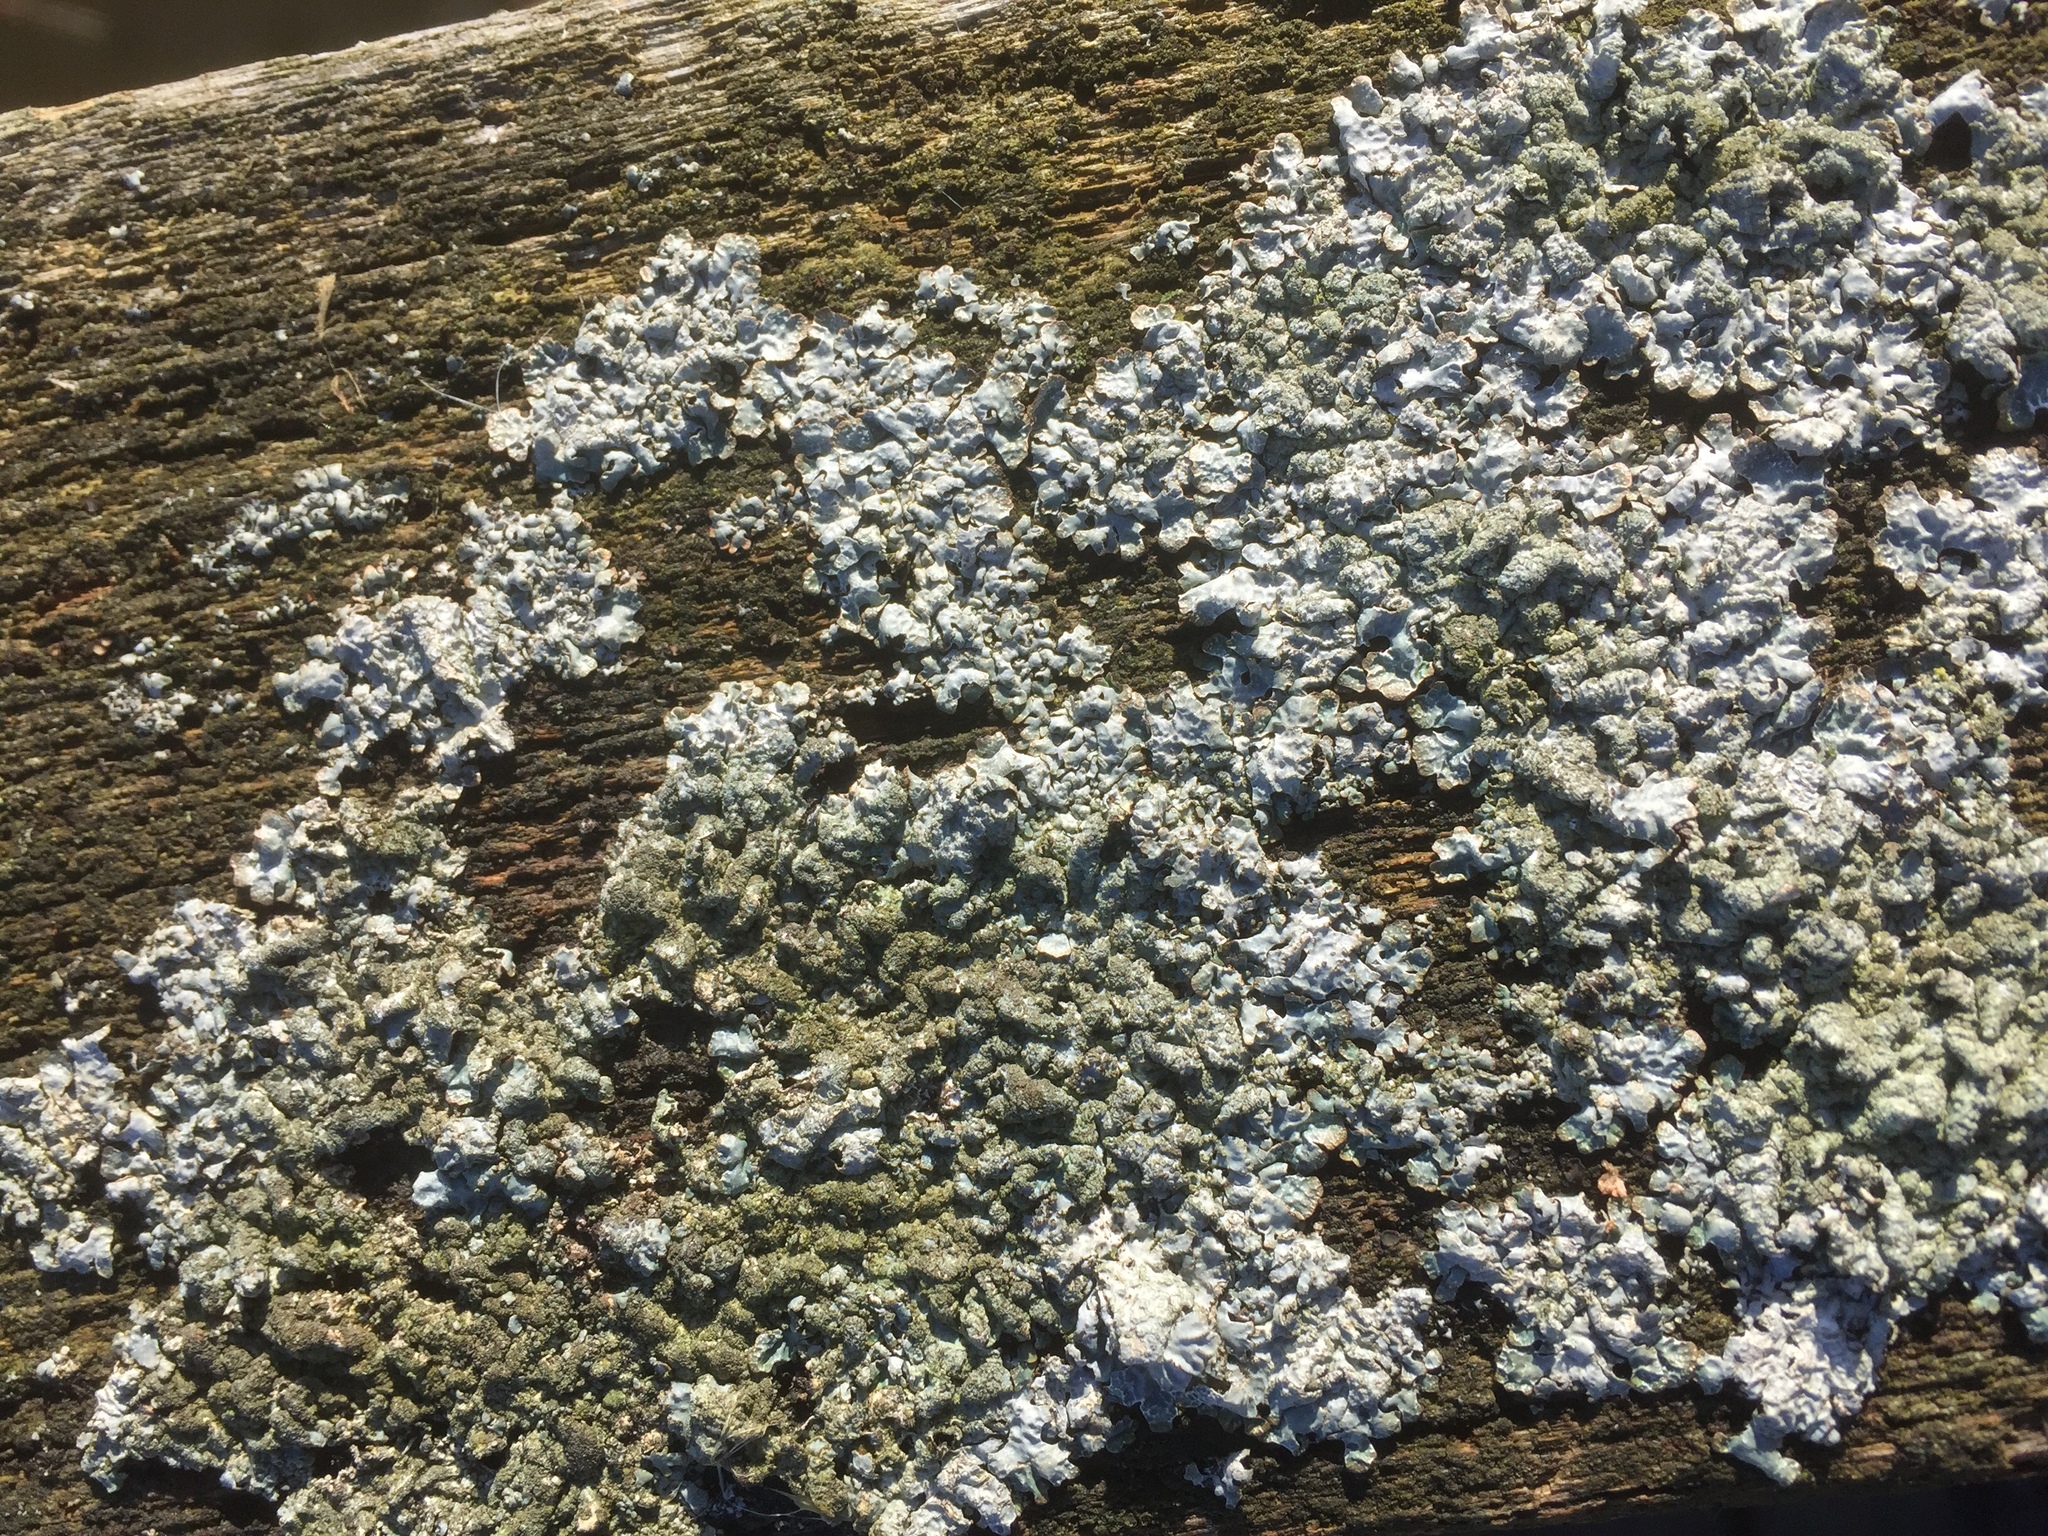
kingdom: Fungi
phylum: Ascomycota
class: Lecanoromycetes
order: Lecanorales
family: Parmeliaceae
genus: Parmelia
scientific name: Parmelia sulcata
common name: Netted shield lichen
